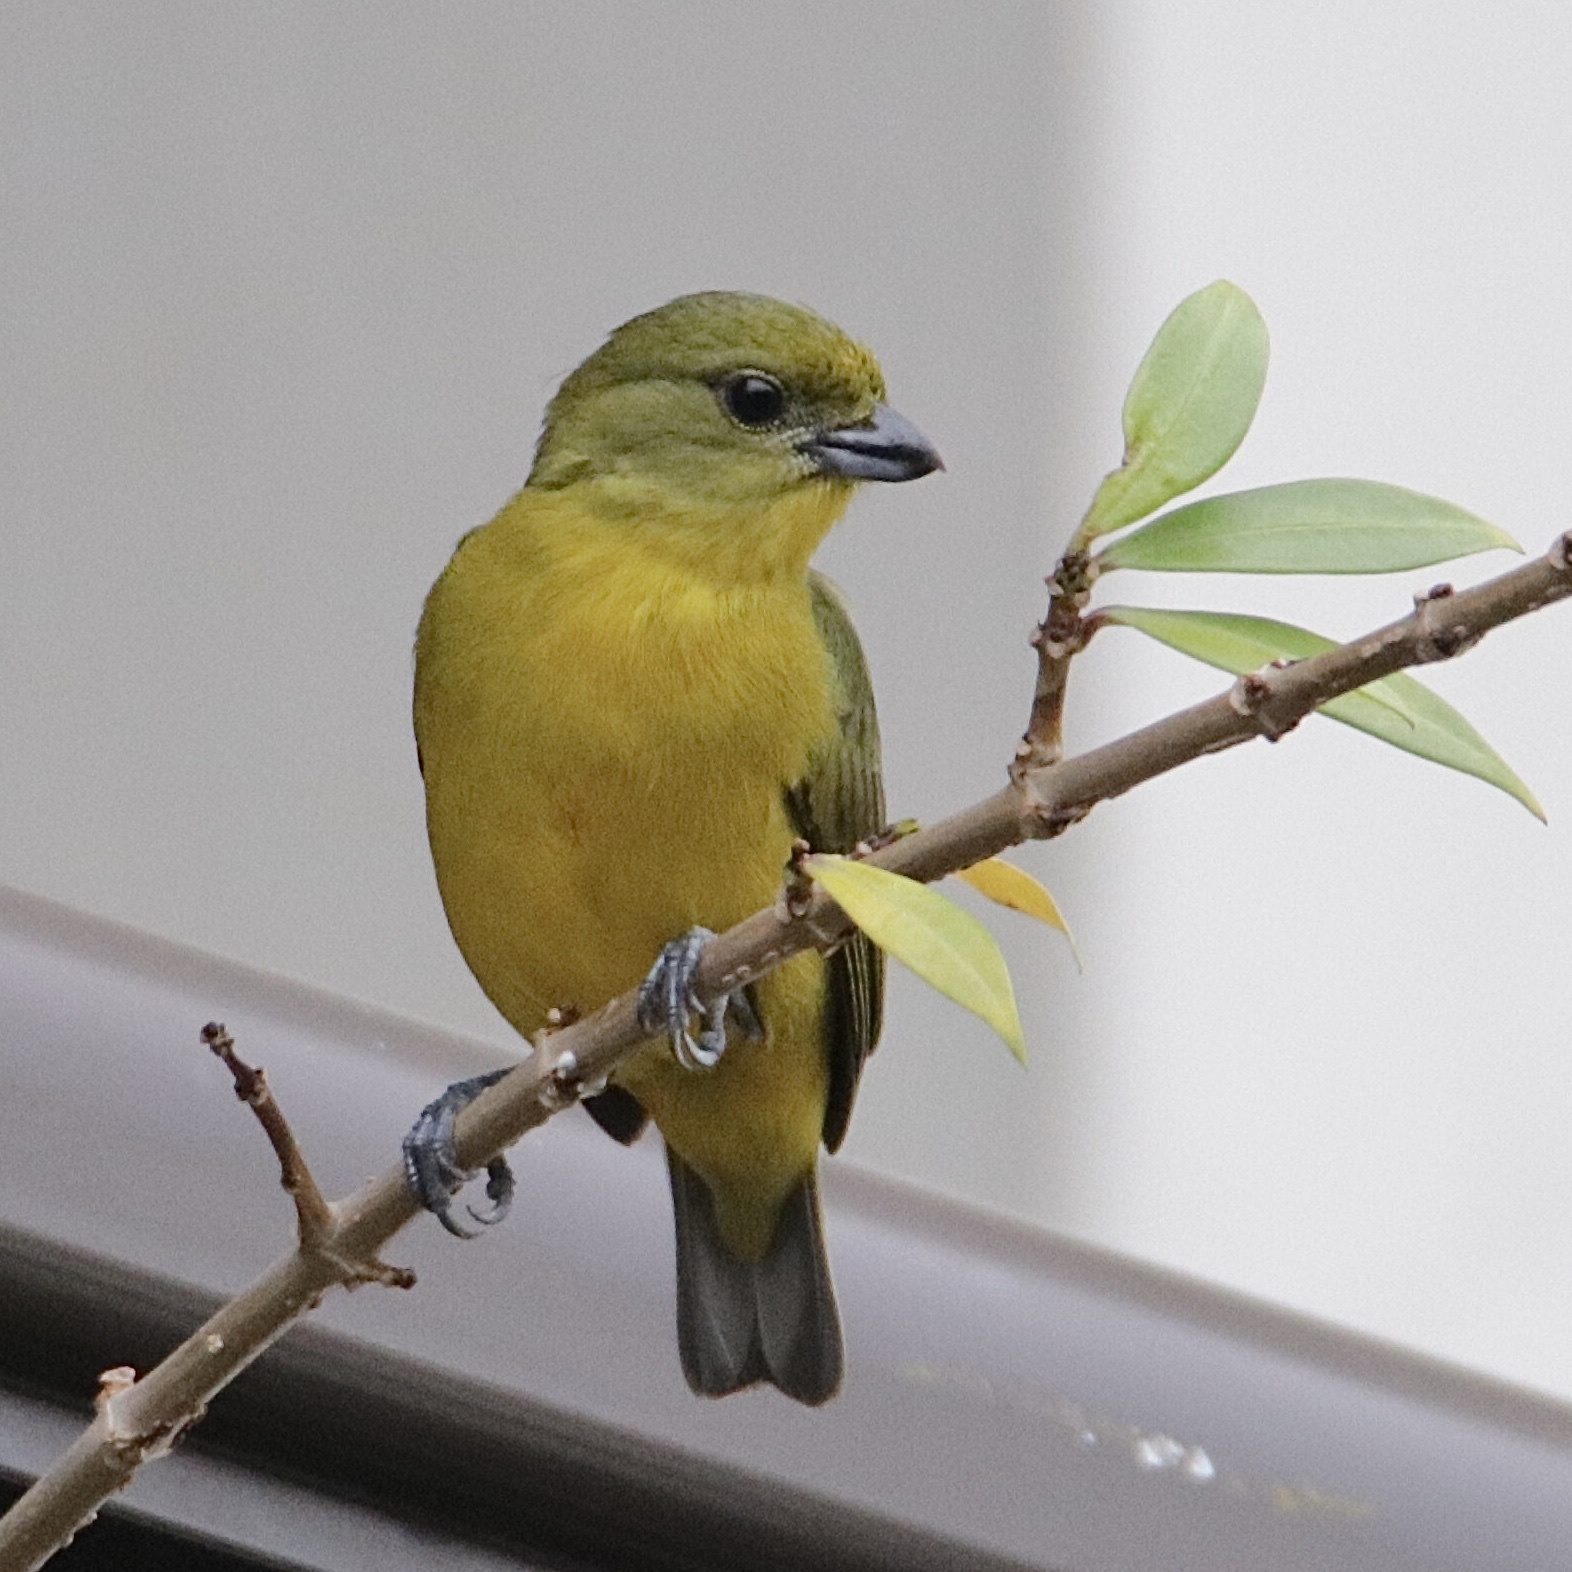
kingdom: Animalia
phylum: Chordata
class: Aves
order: Passeriformes
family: Fringillidae
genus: Euphonia
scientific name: Euphonia laniirostris
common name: Thick-billed euphonia
